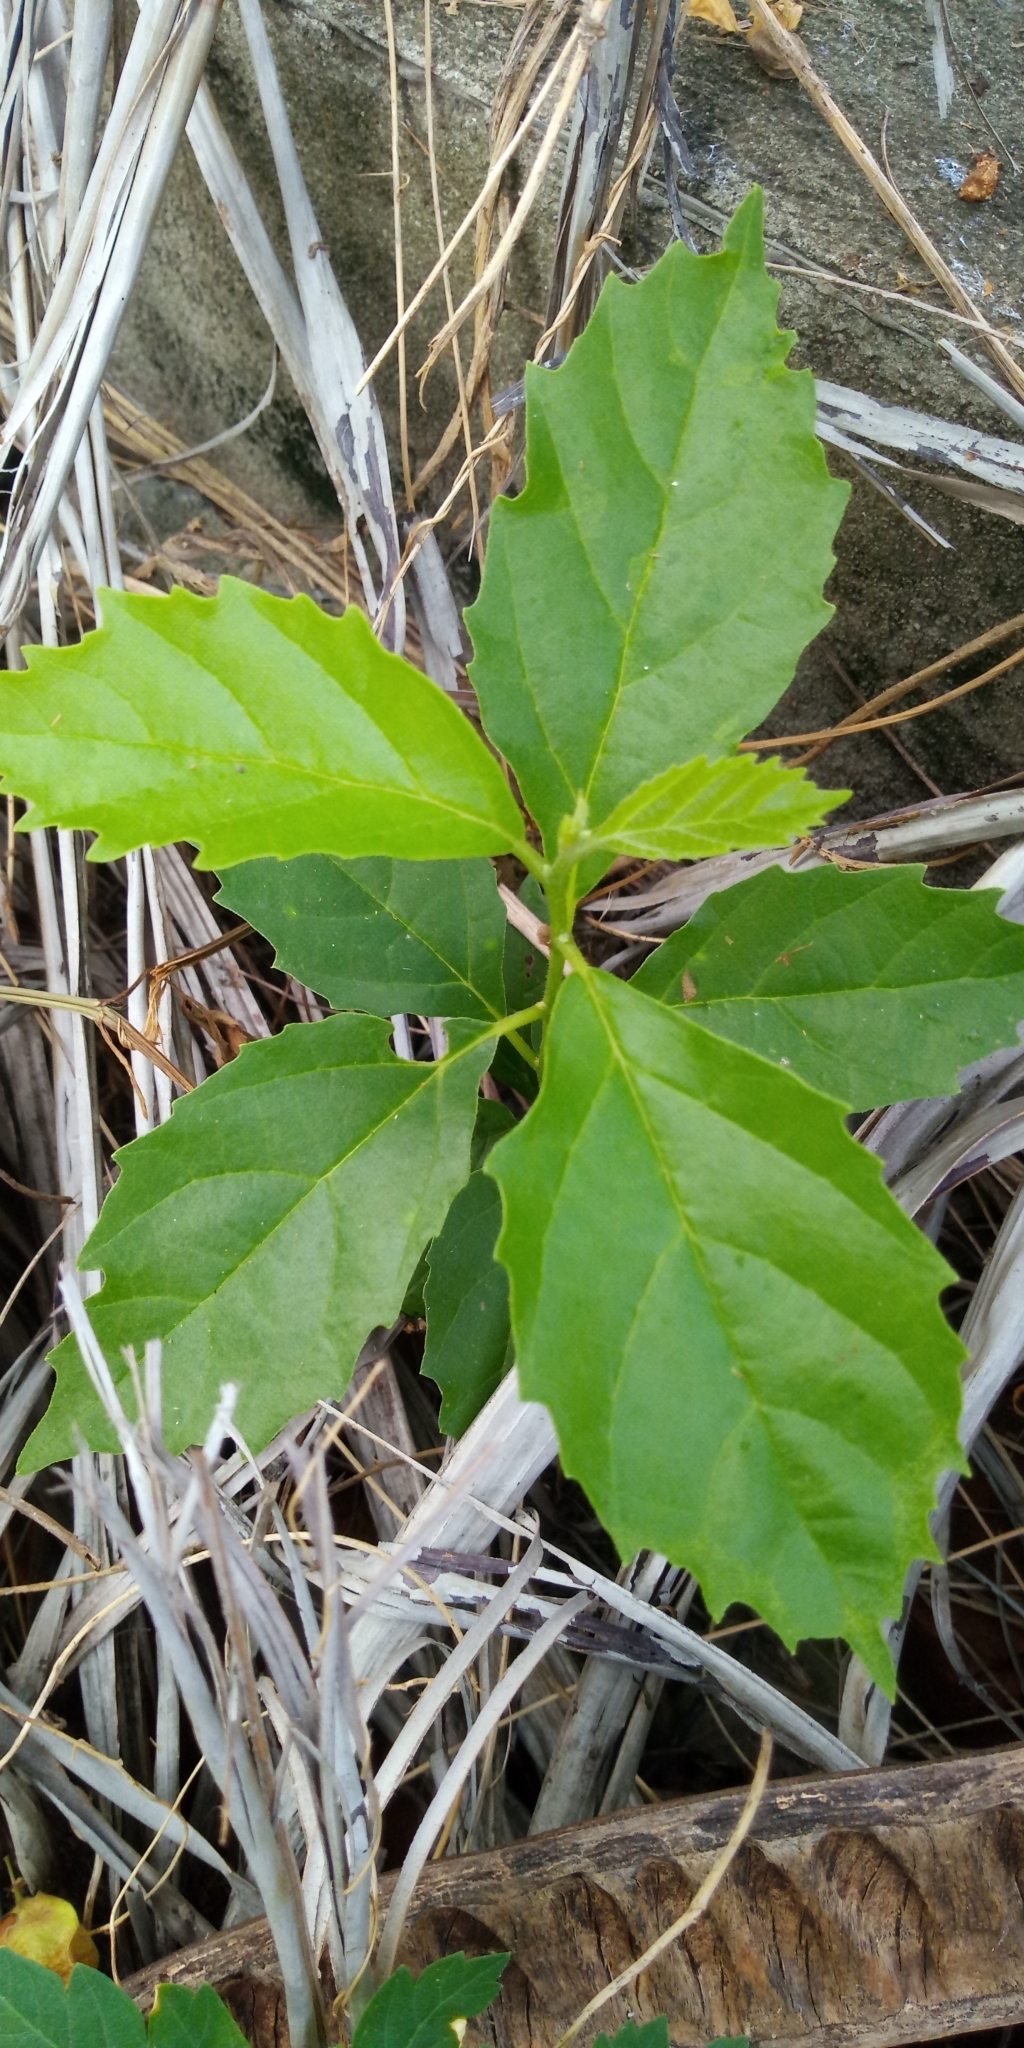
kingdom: Plantae
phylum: Tracheophyta
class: Magnoliopsida
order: Boraginales
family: Cordiaceae
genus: Cordia
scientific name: Cordia dichotoma
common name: Fragrant manjack
